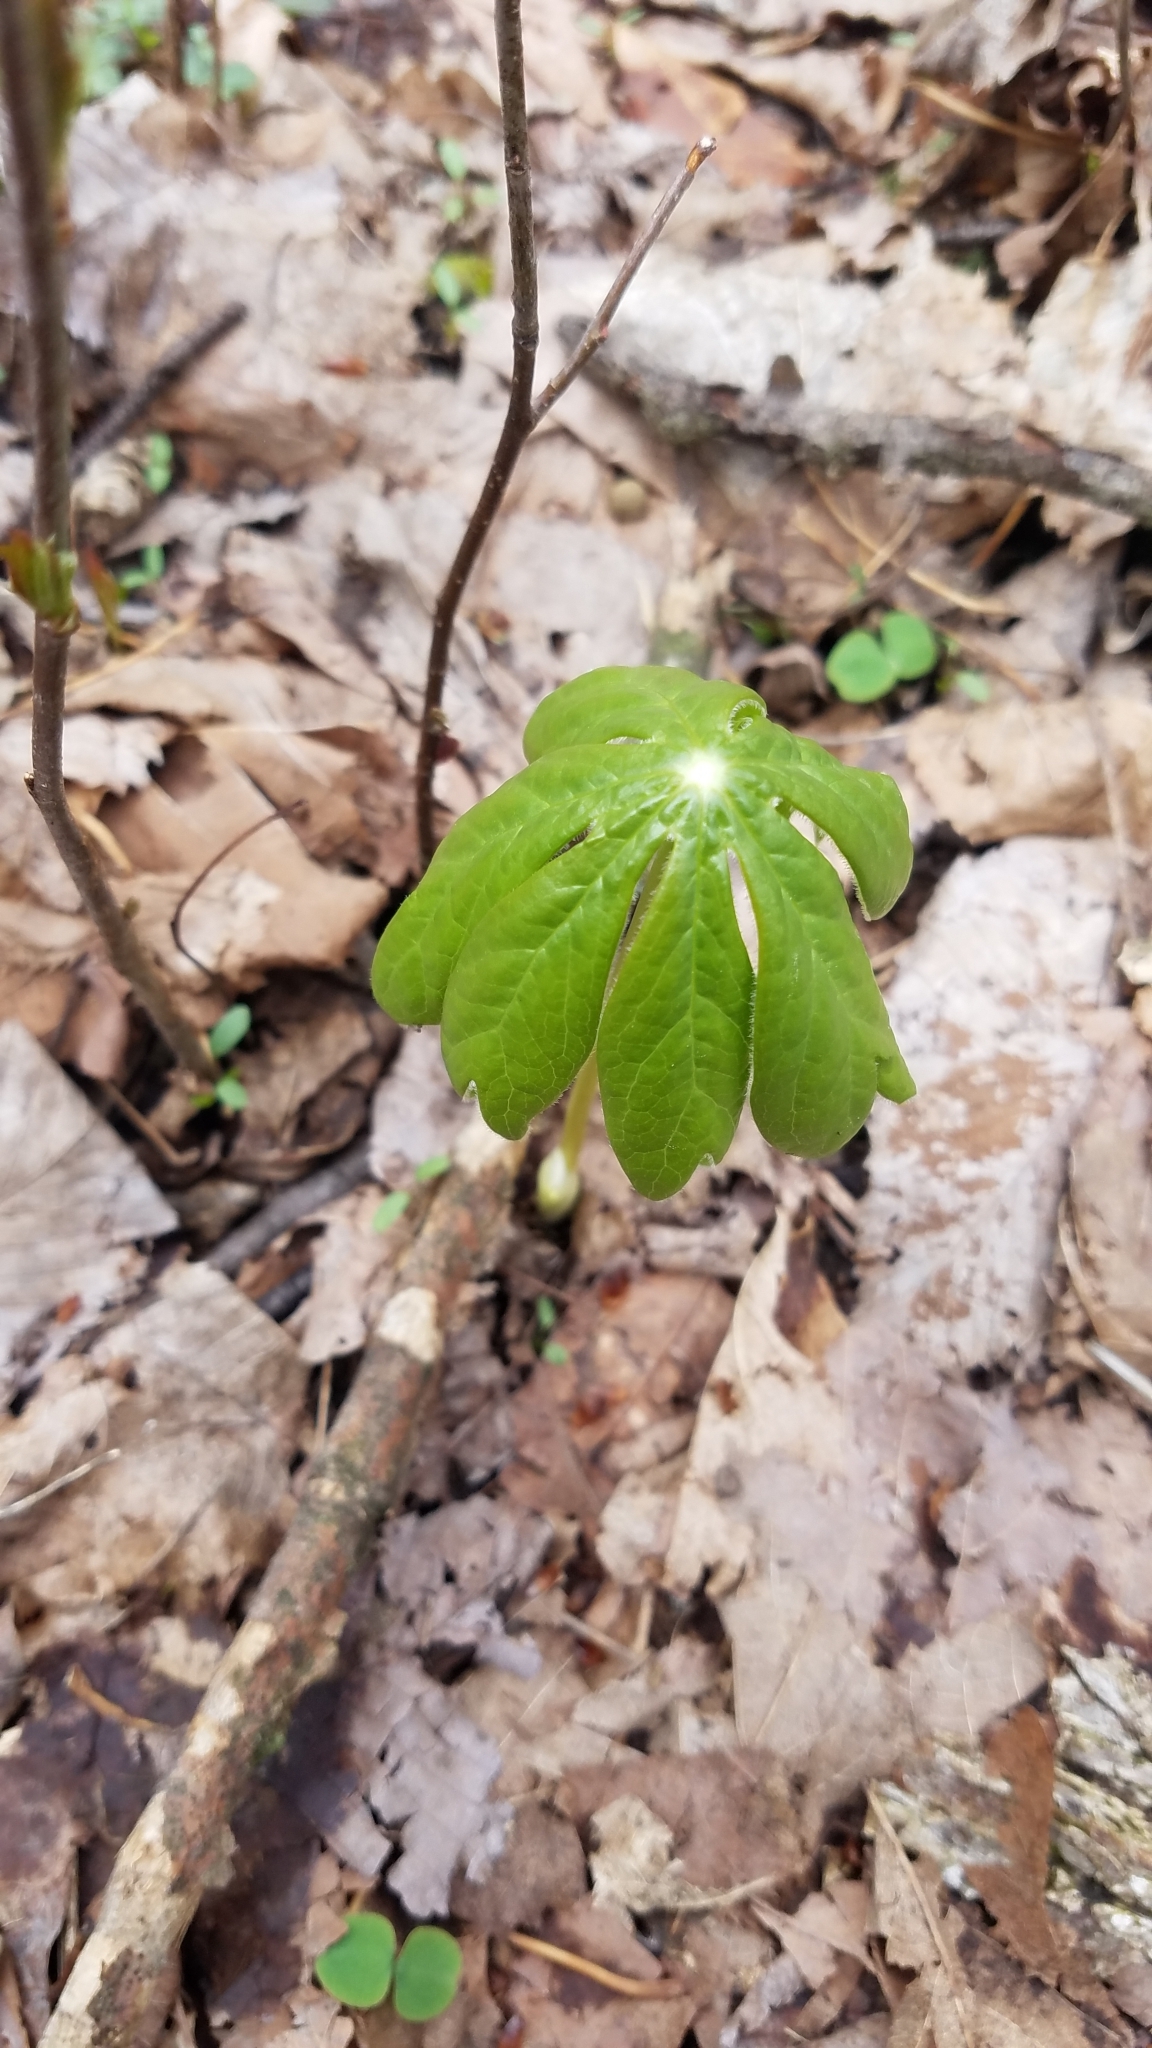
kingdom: Plantae
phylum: Tracheophyta
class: Magnoliopsida
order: Ranunculales
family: Berberidaceae
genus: Podophyllum
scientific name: Podophyllum peltatum
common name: Wild mandrake
